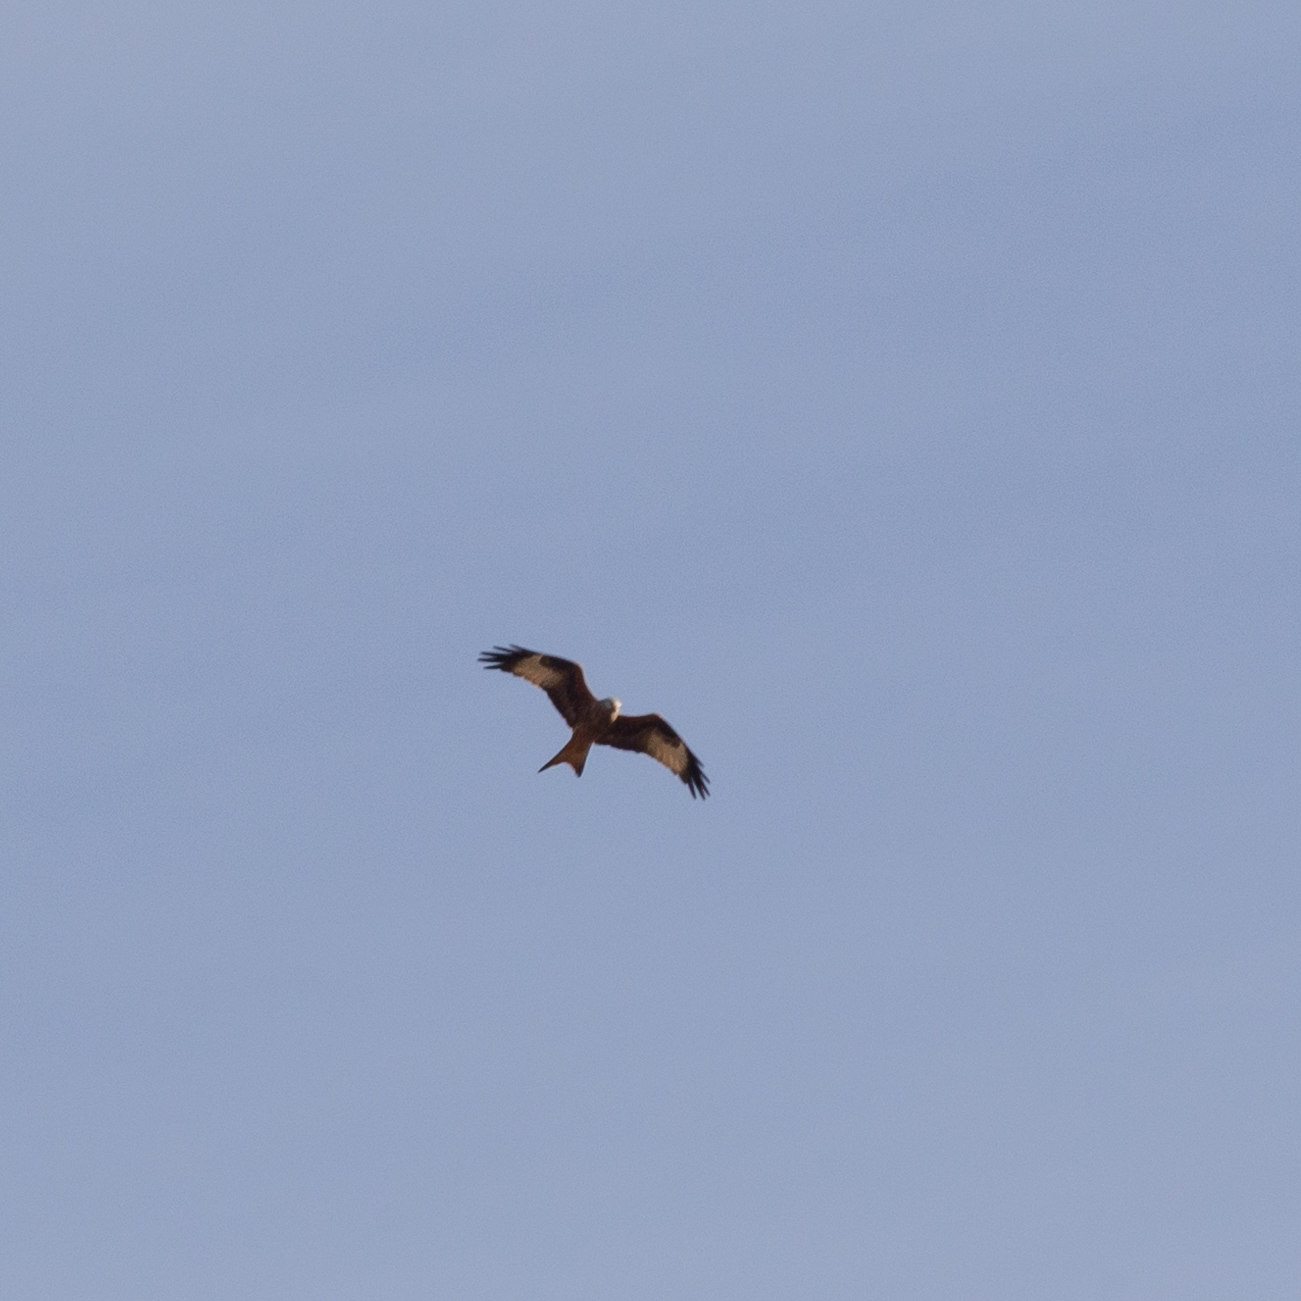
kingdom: Animalia
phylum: Chordata
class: Aves
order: Accipitriformes
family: Accipitridae
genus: Milvus
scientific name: Milvus milvus
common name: Red kite
